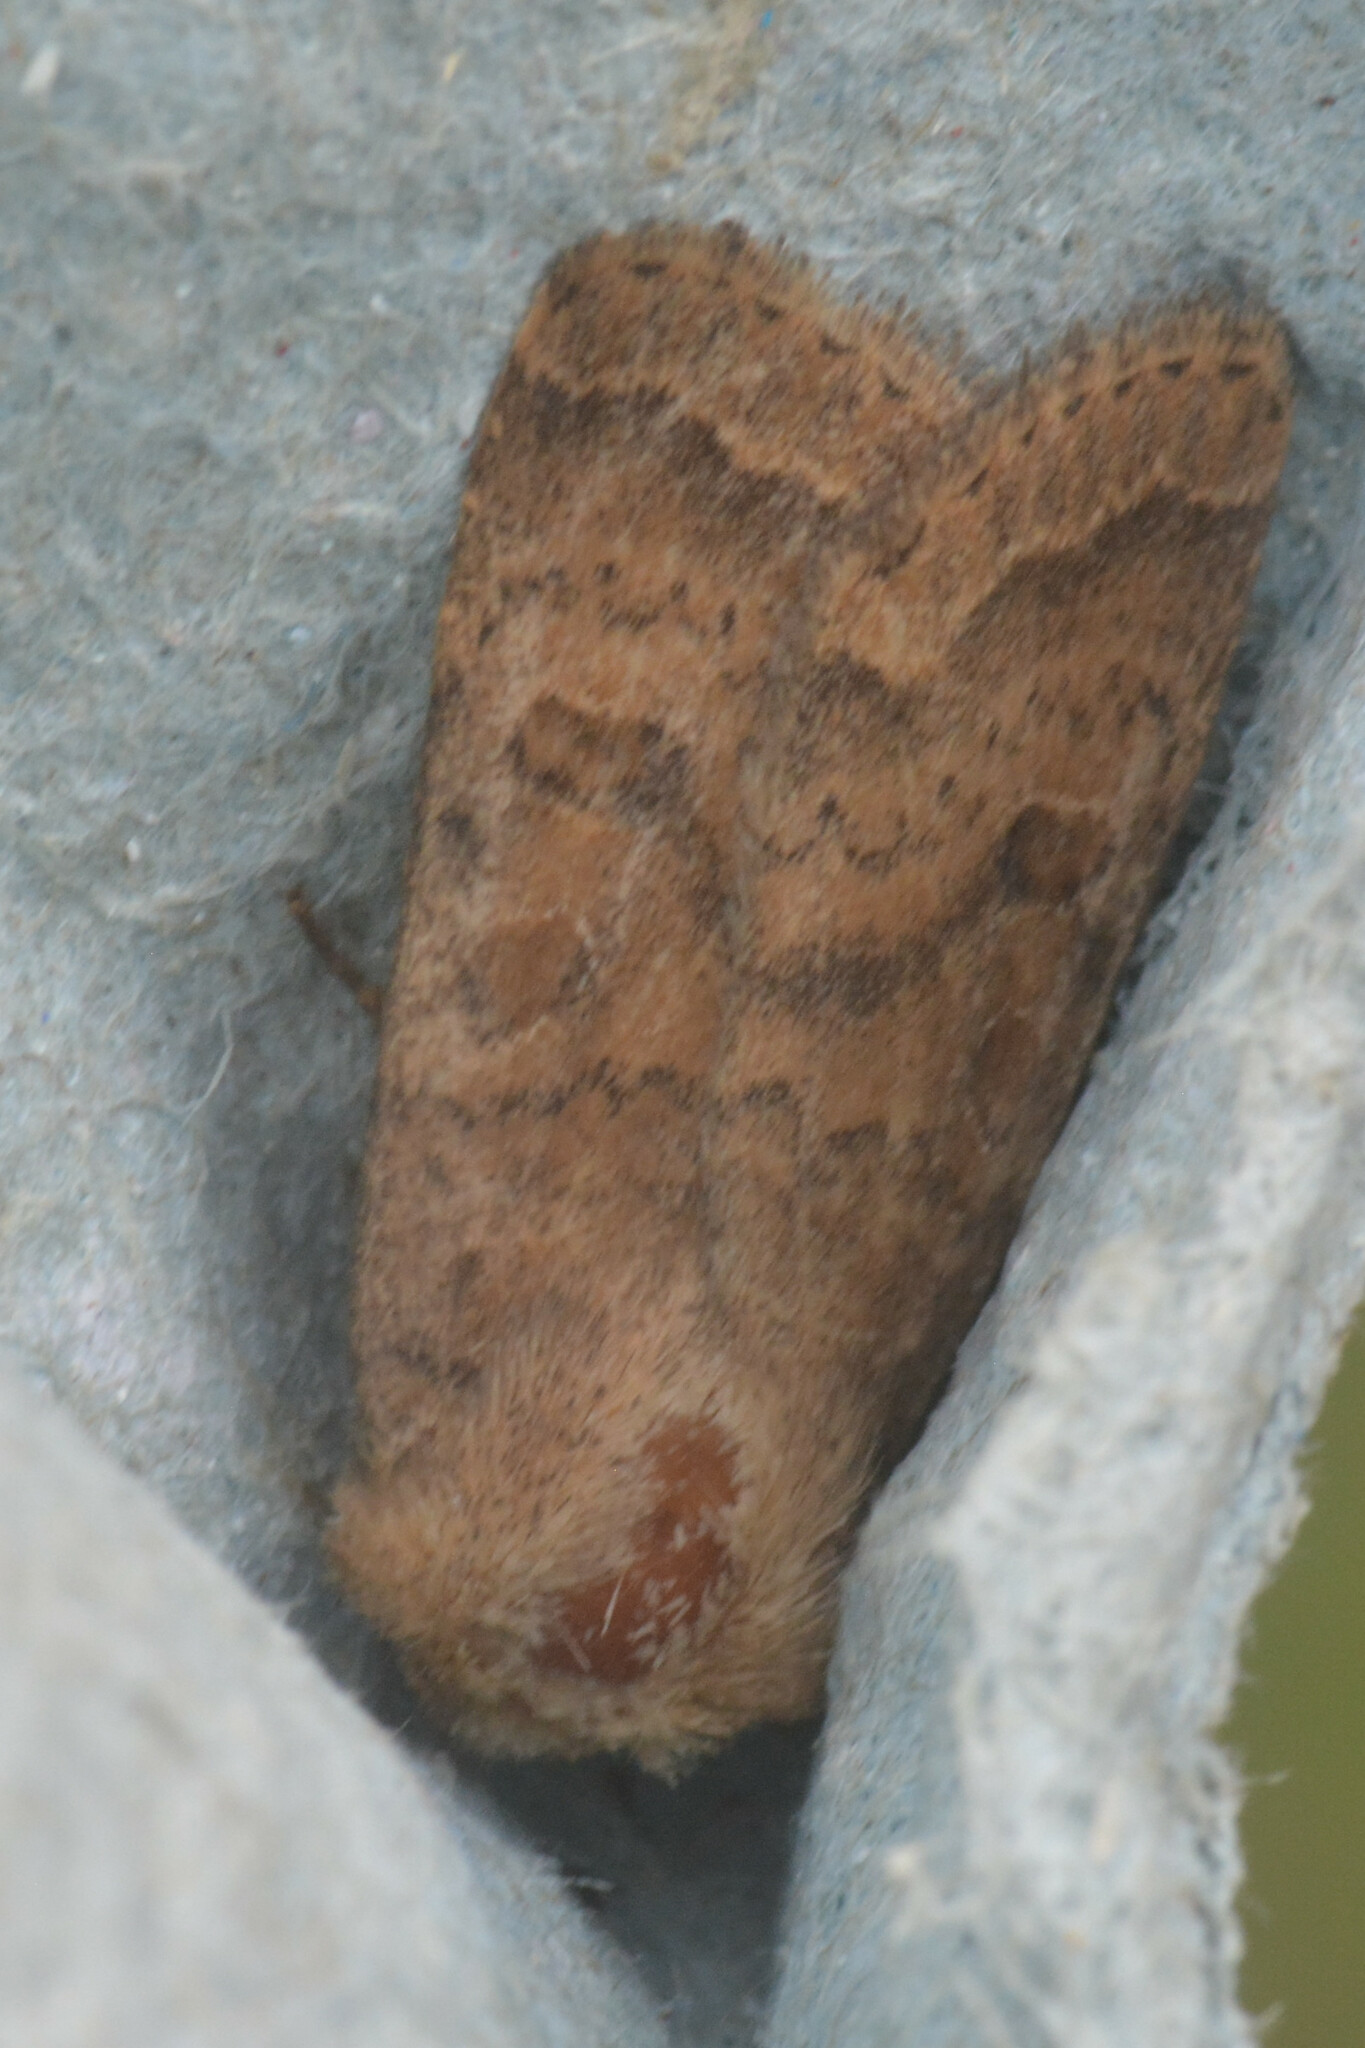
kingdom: Animalia
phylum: Arthropoda
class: Insecta
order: Lepidoptera
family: Noctuidae
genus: Hoplodrina
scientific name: Hoplodrina octogenaria
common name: Uncertain
